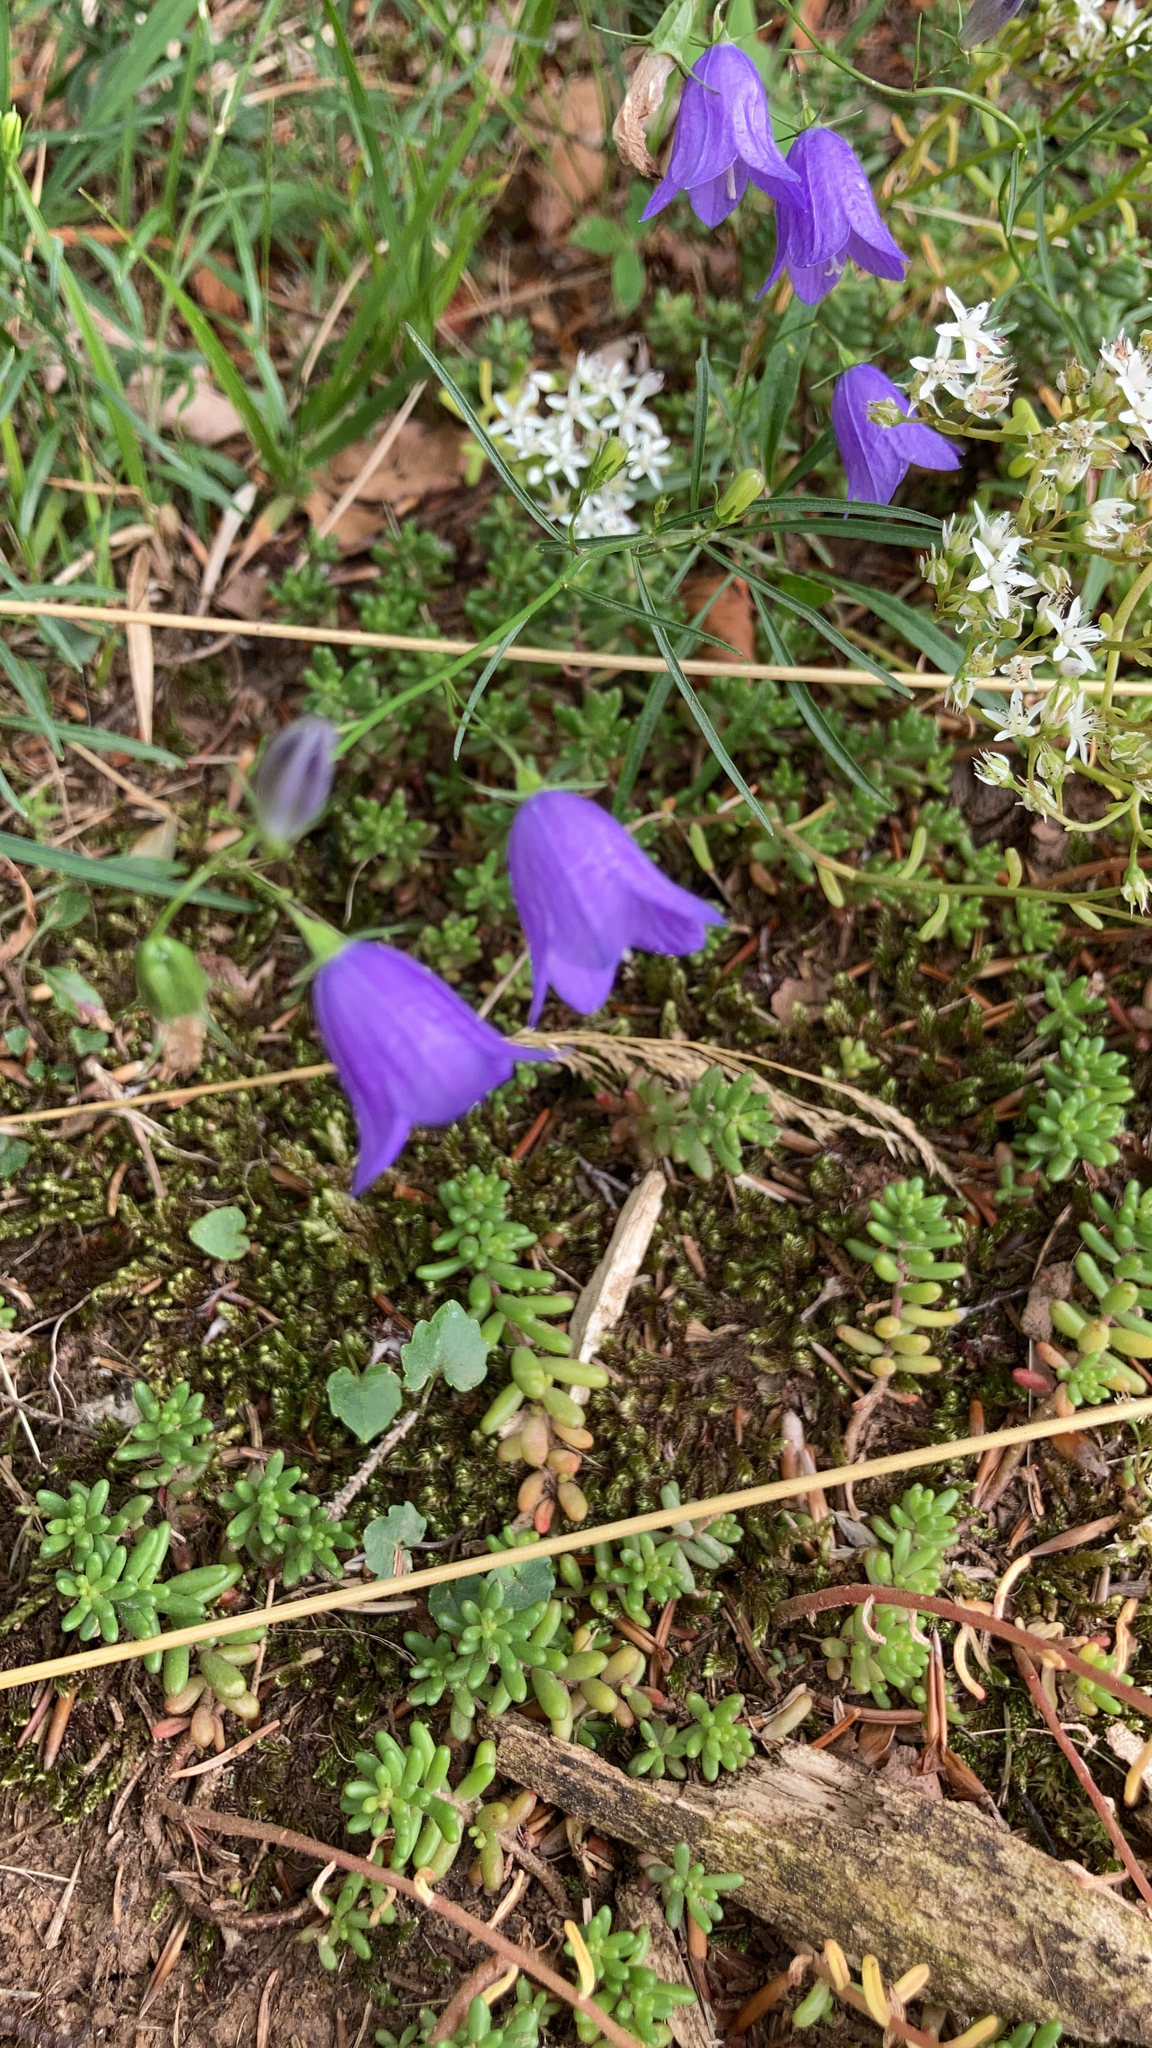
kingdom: Plantae
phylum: Tracheophyta
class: Magnoliopsida
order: Asterales
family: Campanulaceae
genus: Campanula
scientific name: Campanula rotundifolia
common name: Harebell
